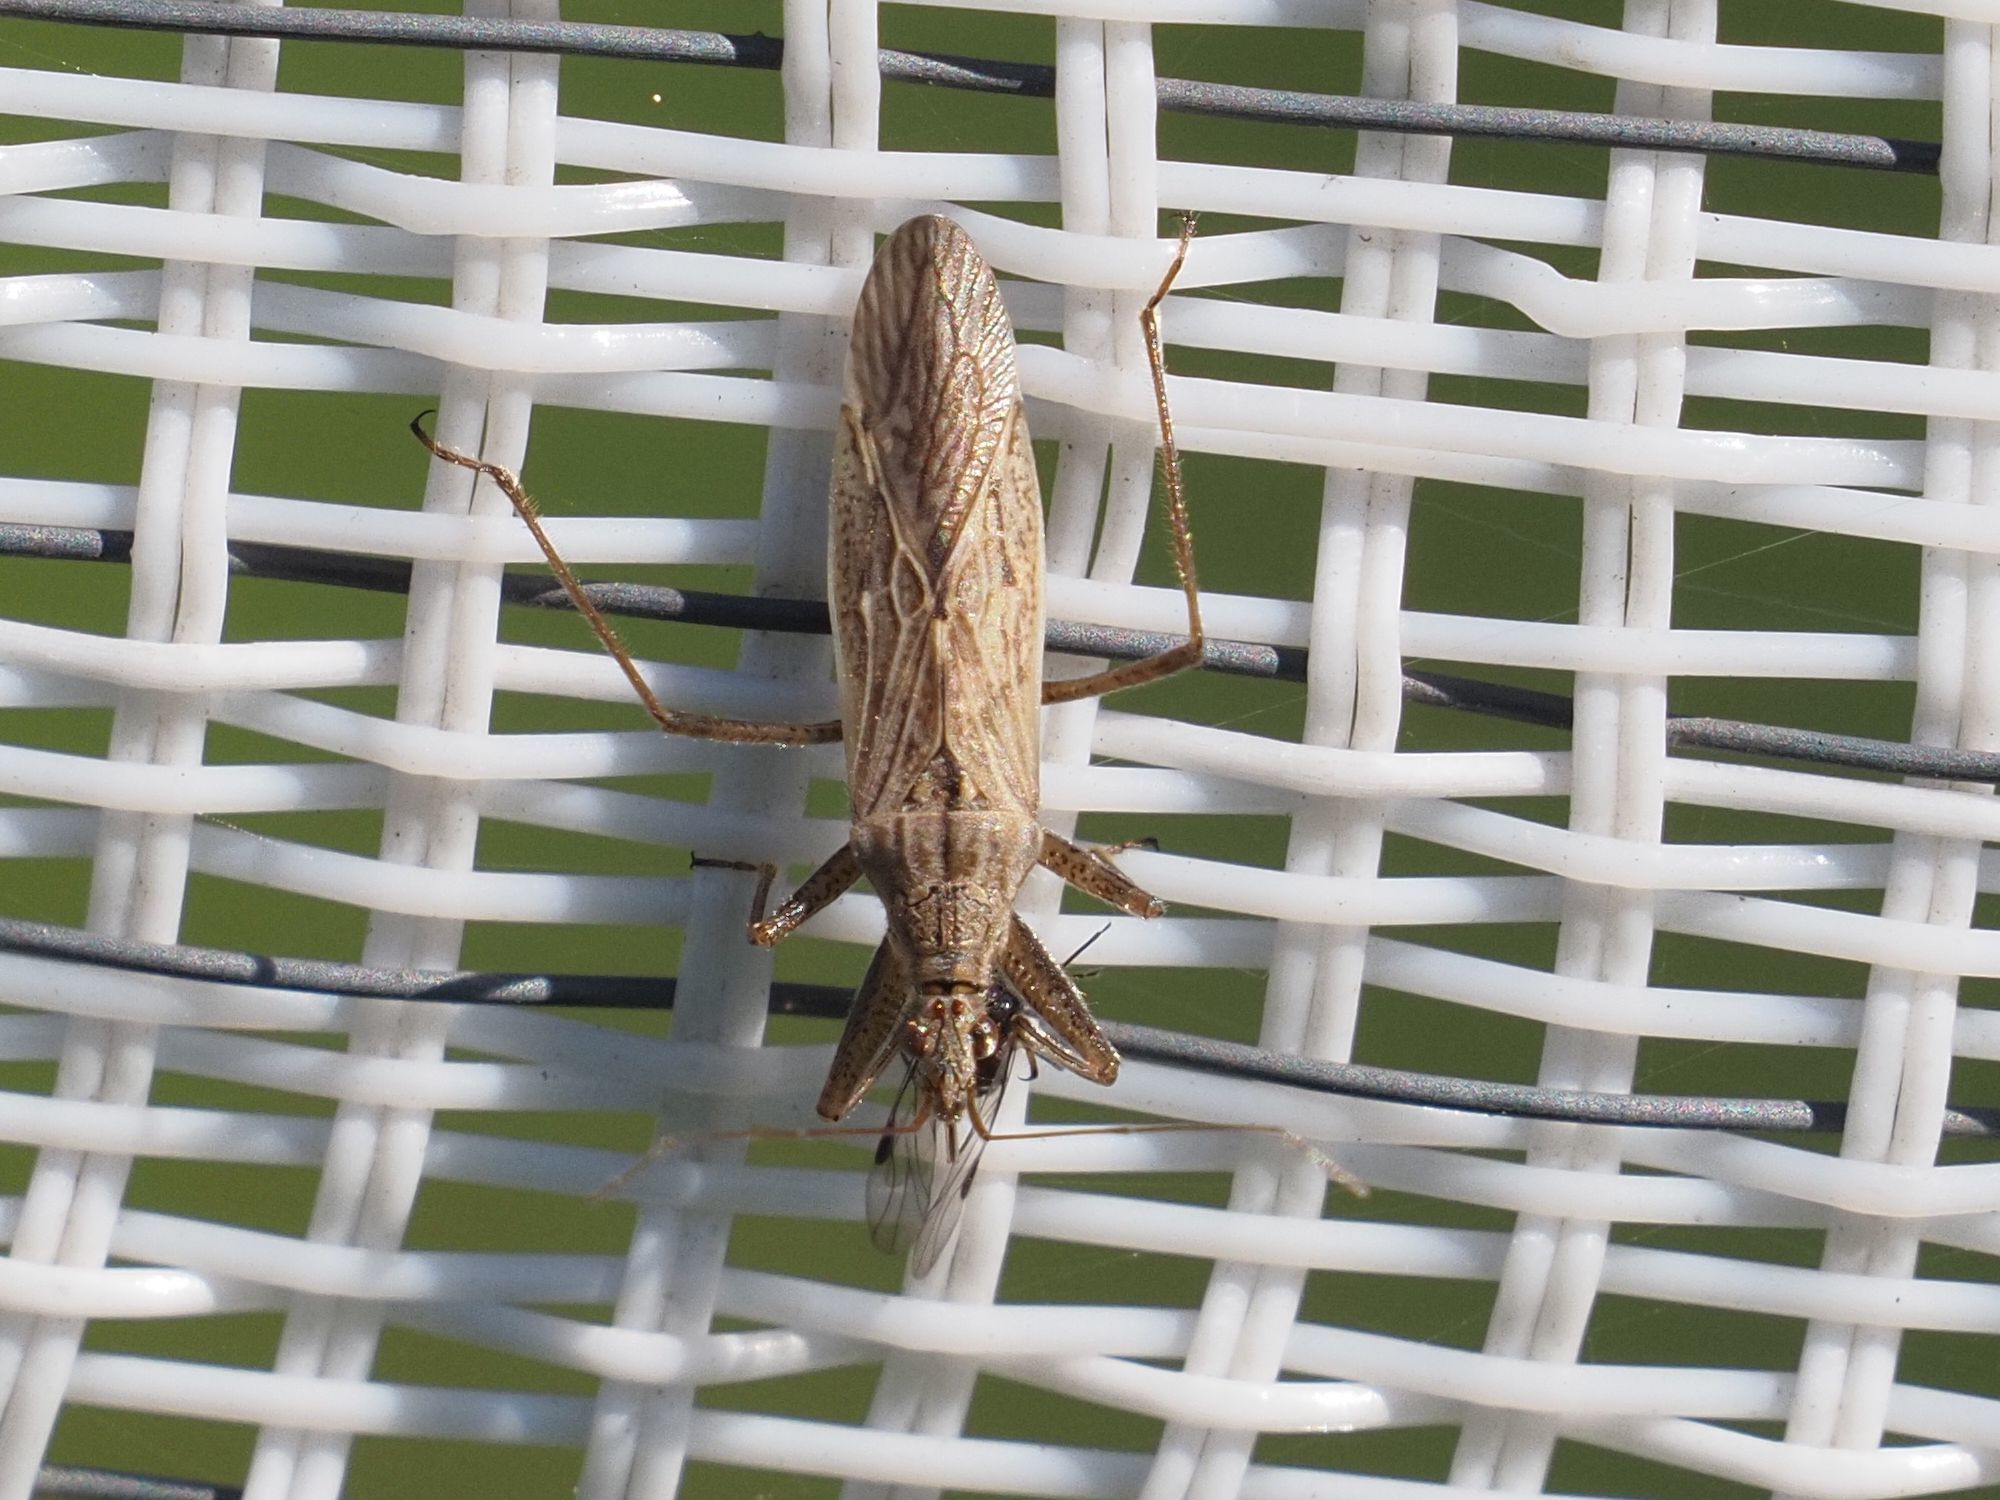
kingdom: Animalia
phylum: Arthropoda
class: Insecta
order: Hemiptera
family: Nabidae
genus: Nabis
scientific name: Nabis
